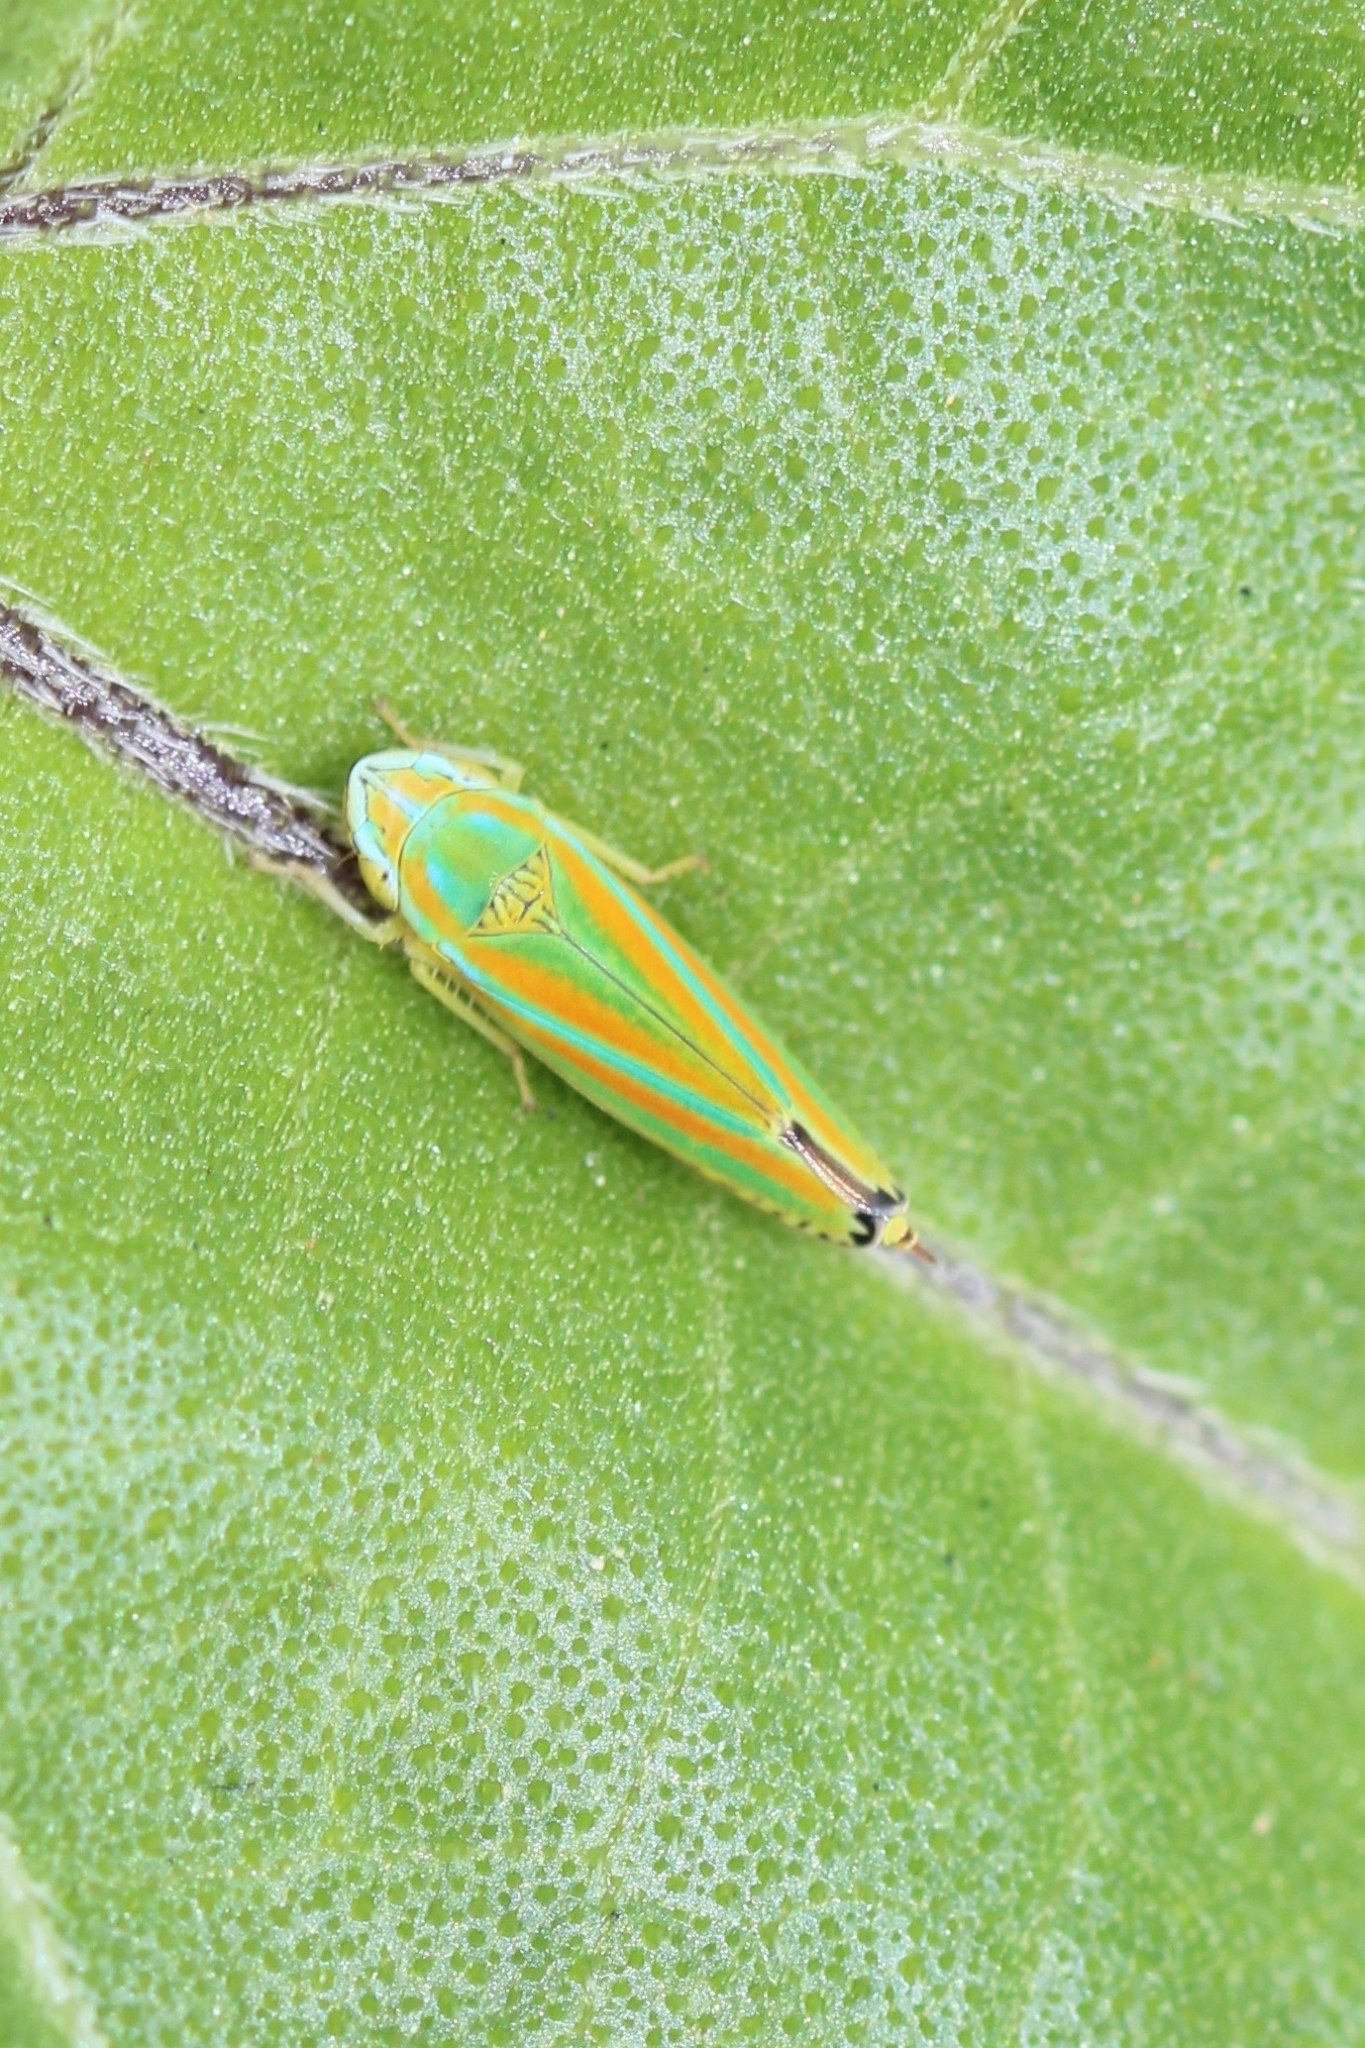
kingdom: Animalia
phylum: Arthropoda
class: Insecta
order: Hemiptera
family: Cicadellidae
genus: Graphocephala
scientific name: Graphocephala versuta
